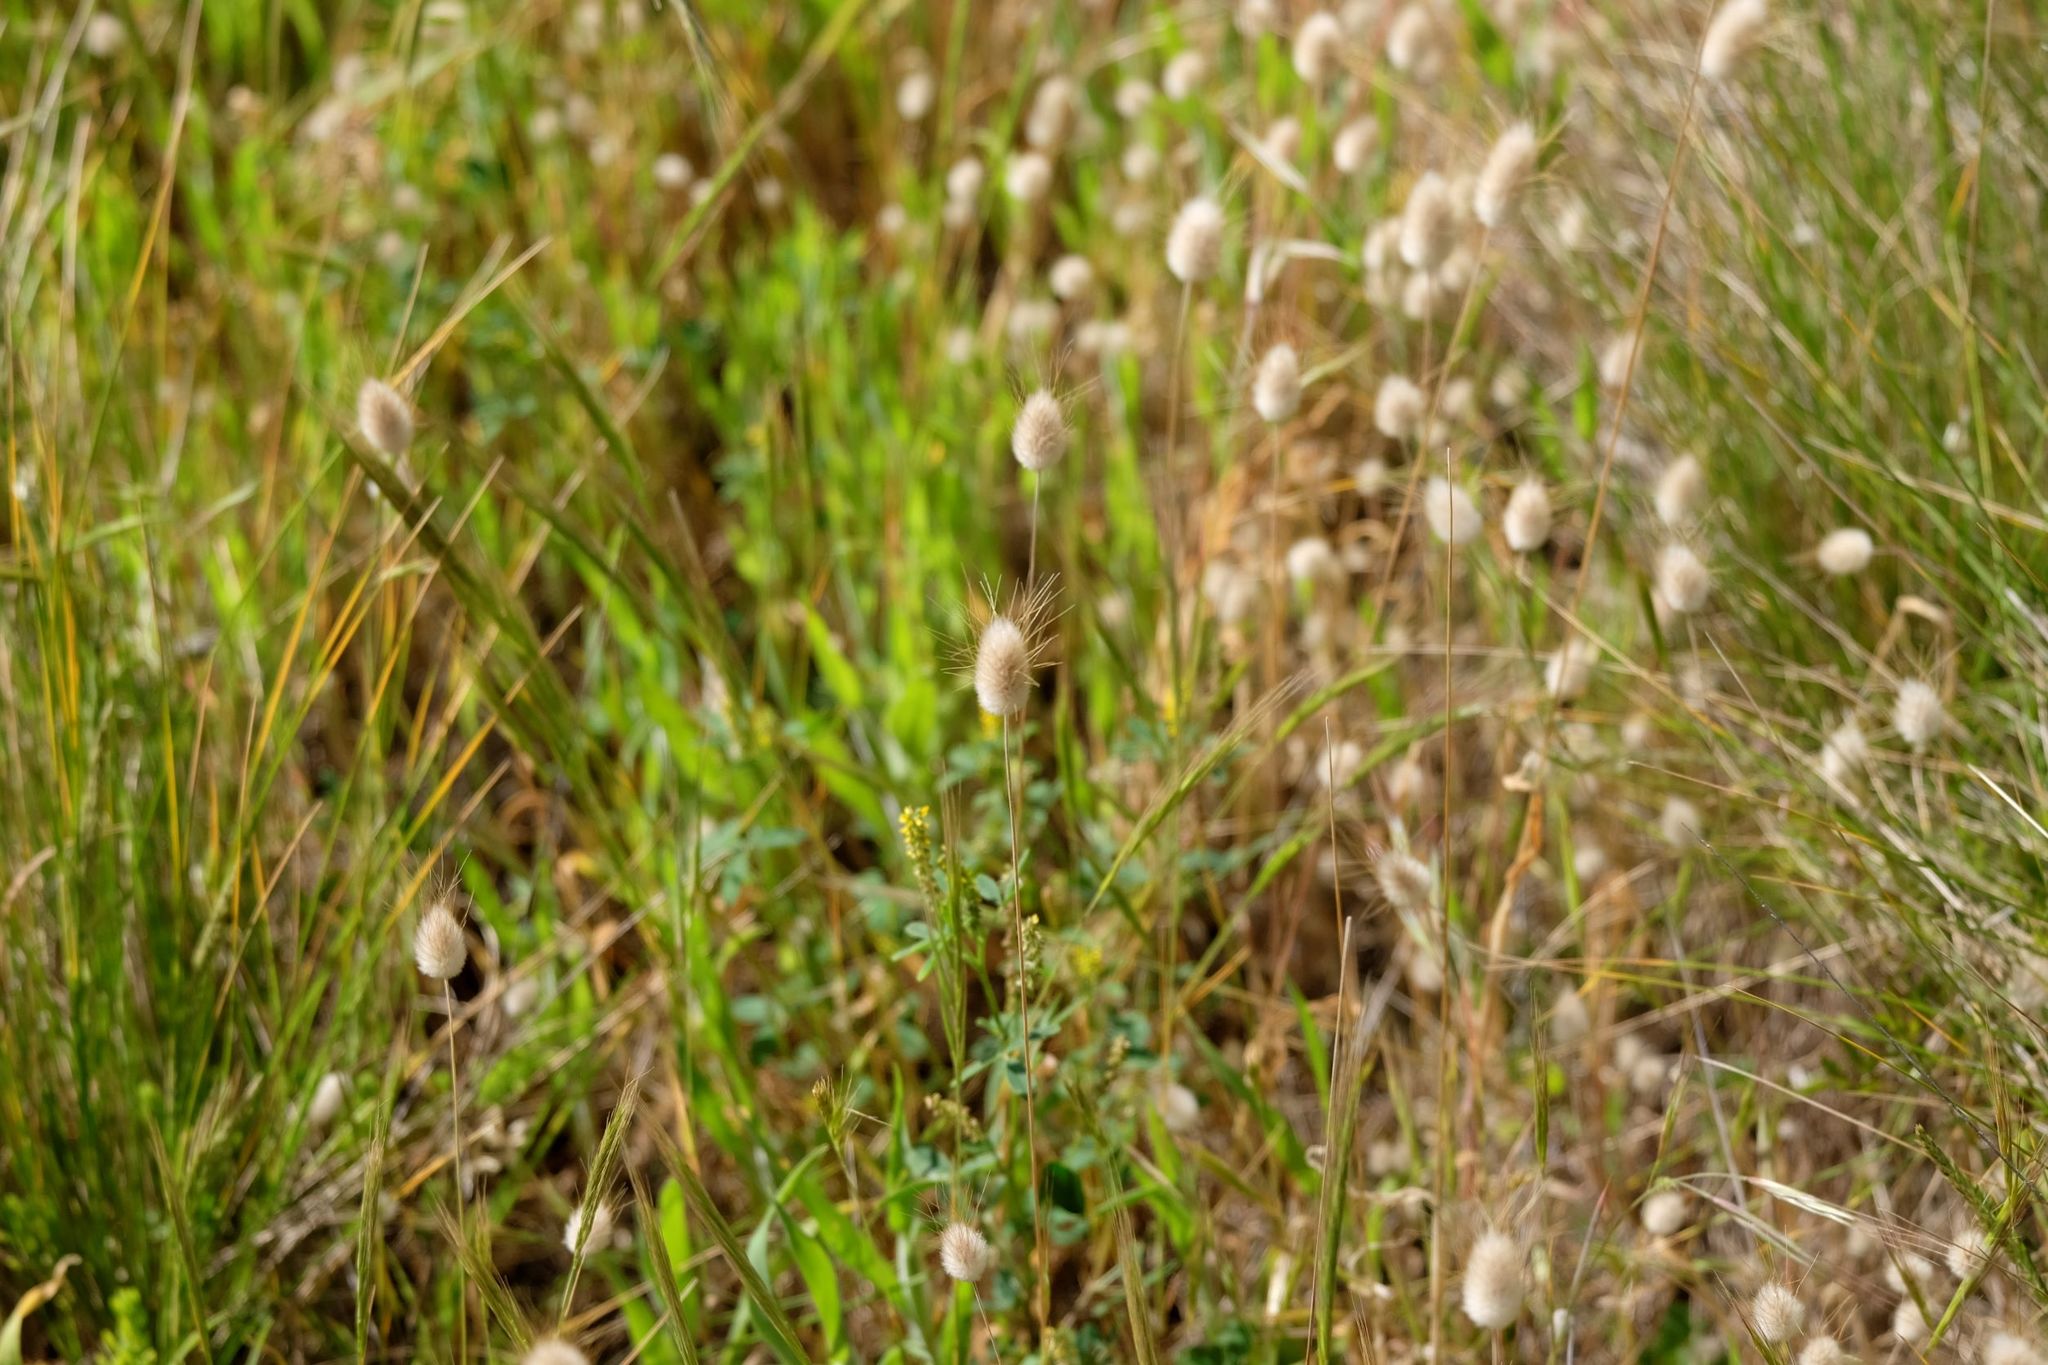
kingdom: Plantae
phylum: Tracheophyta
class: Liliopsida
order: Poales
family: Poaceae
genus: Lagurus
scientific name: Lagurus ovatus
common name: Hare's-tail
